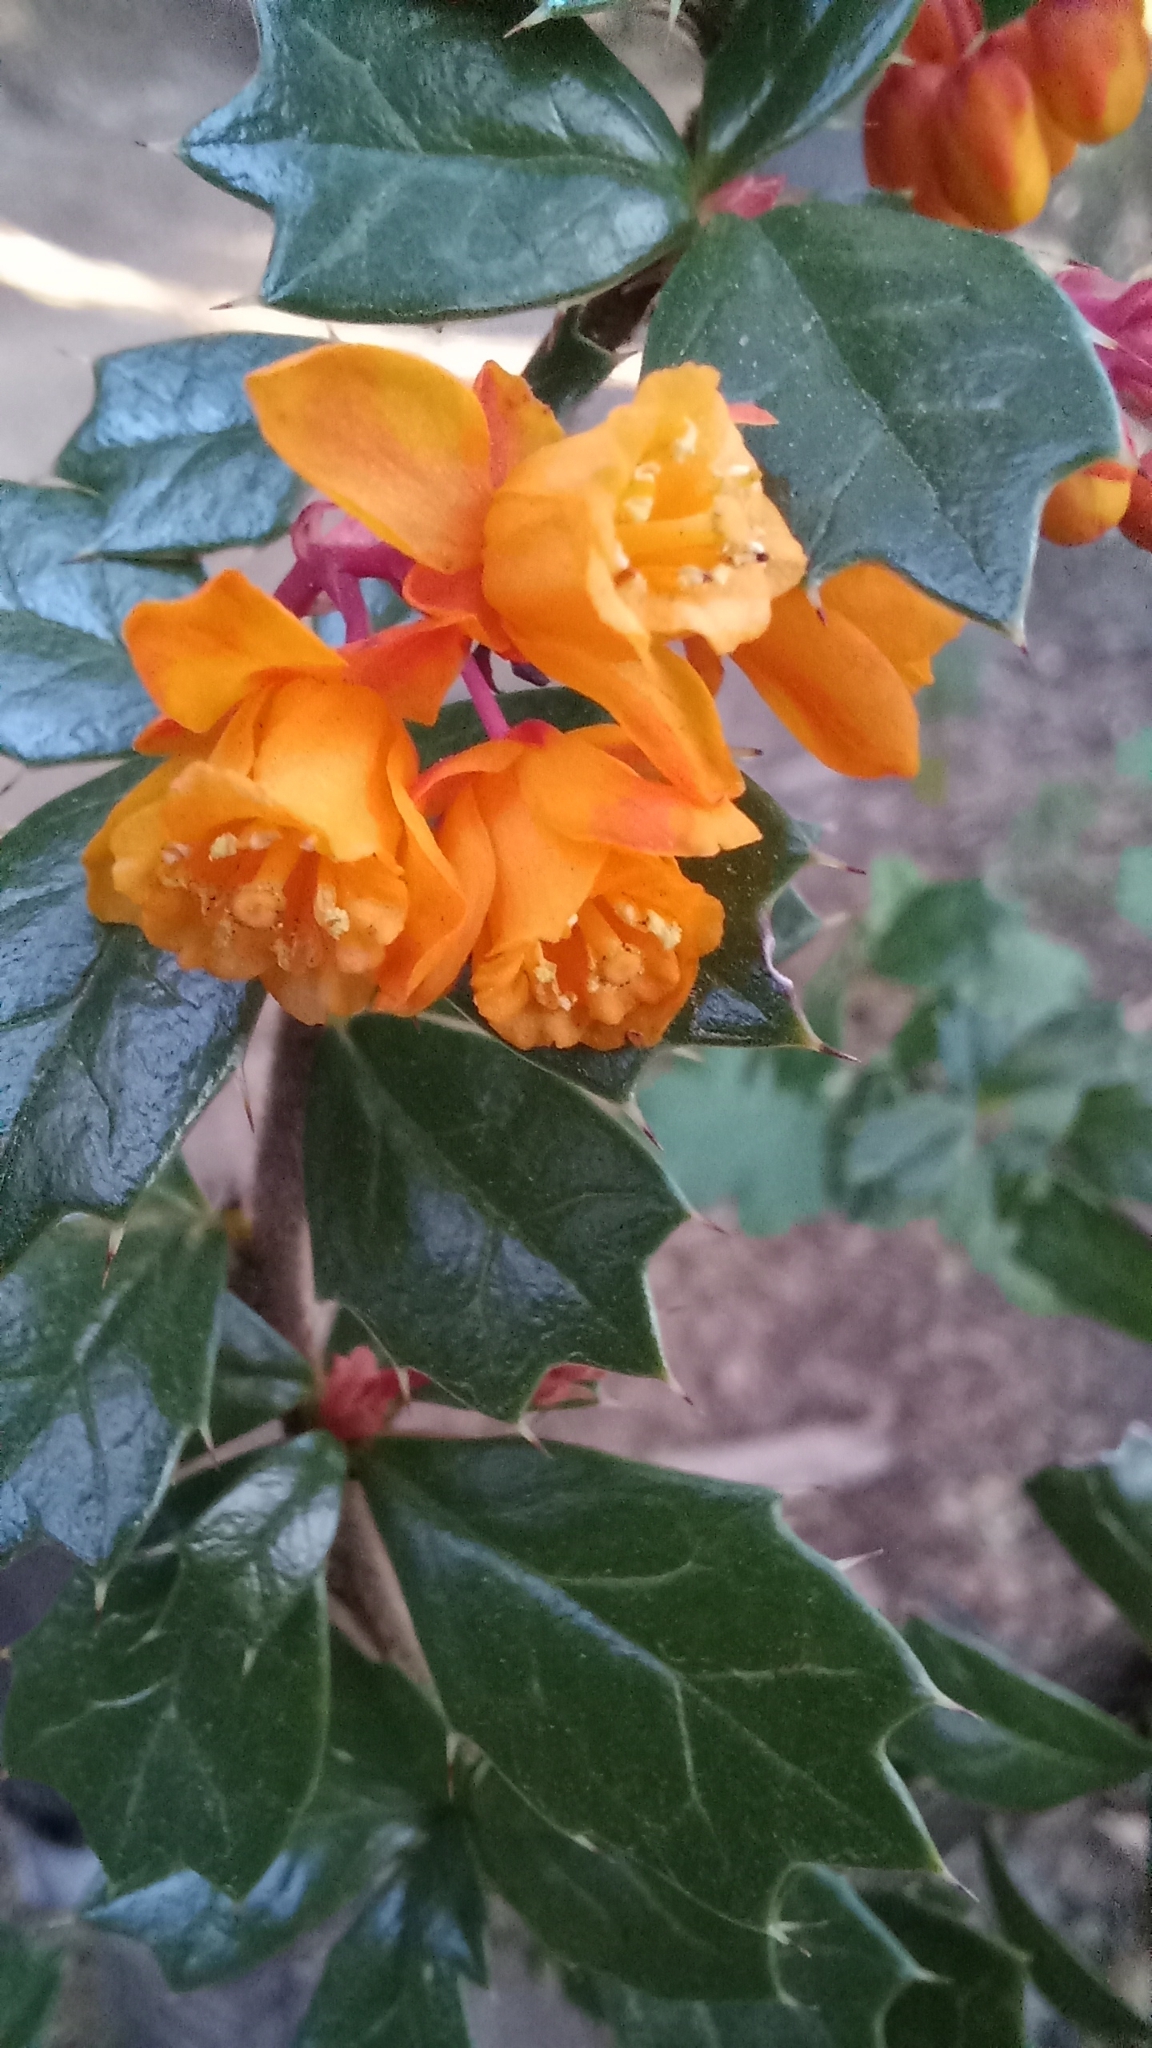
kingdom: Plantae
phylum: Tracheophyta
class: Magnoliopsida
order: Ranunculales
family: Berberidaceae
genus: Berberis
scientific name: Berberis darwinii
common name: Darwin's barberry
